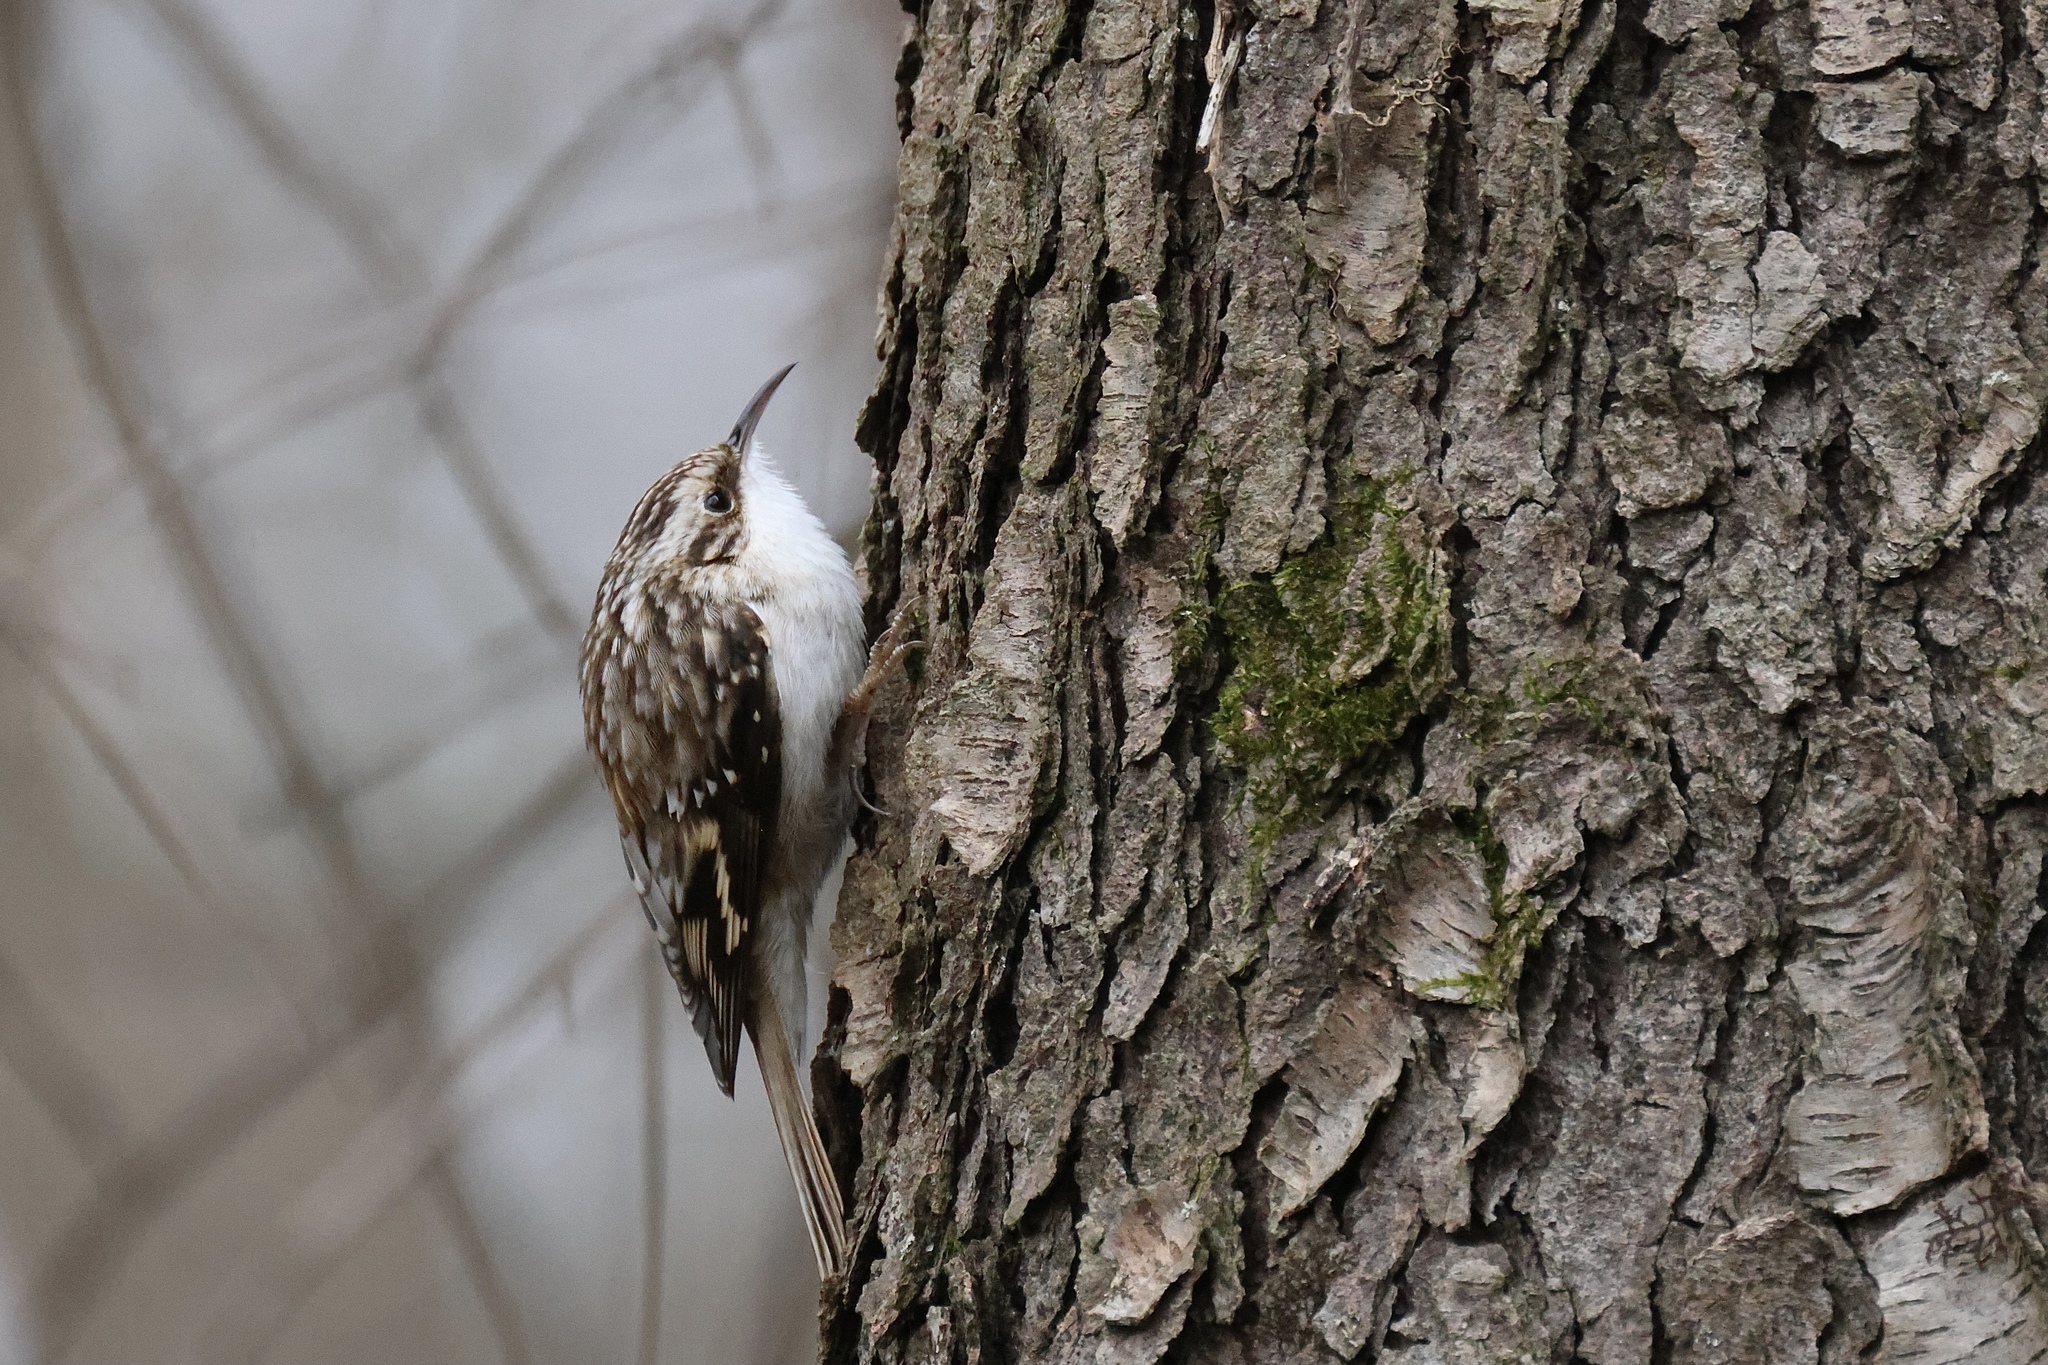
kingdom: Animalia
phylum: Chordata
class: Aves
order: Passeriformes
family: Certhiidae
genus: Certhia
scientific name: Certhia americana
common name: Brown creeper
